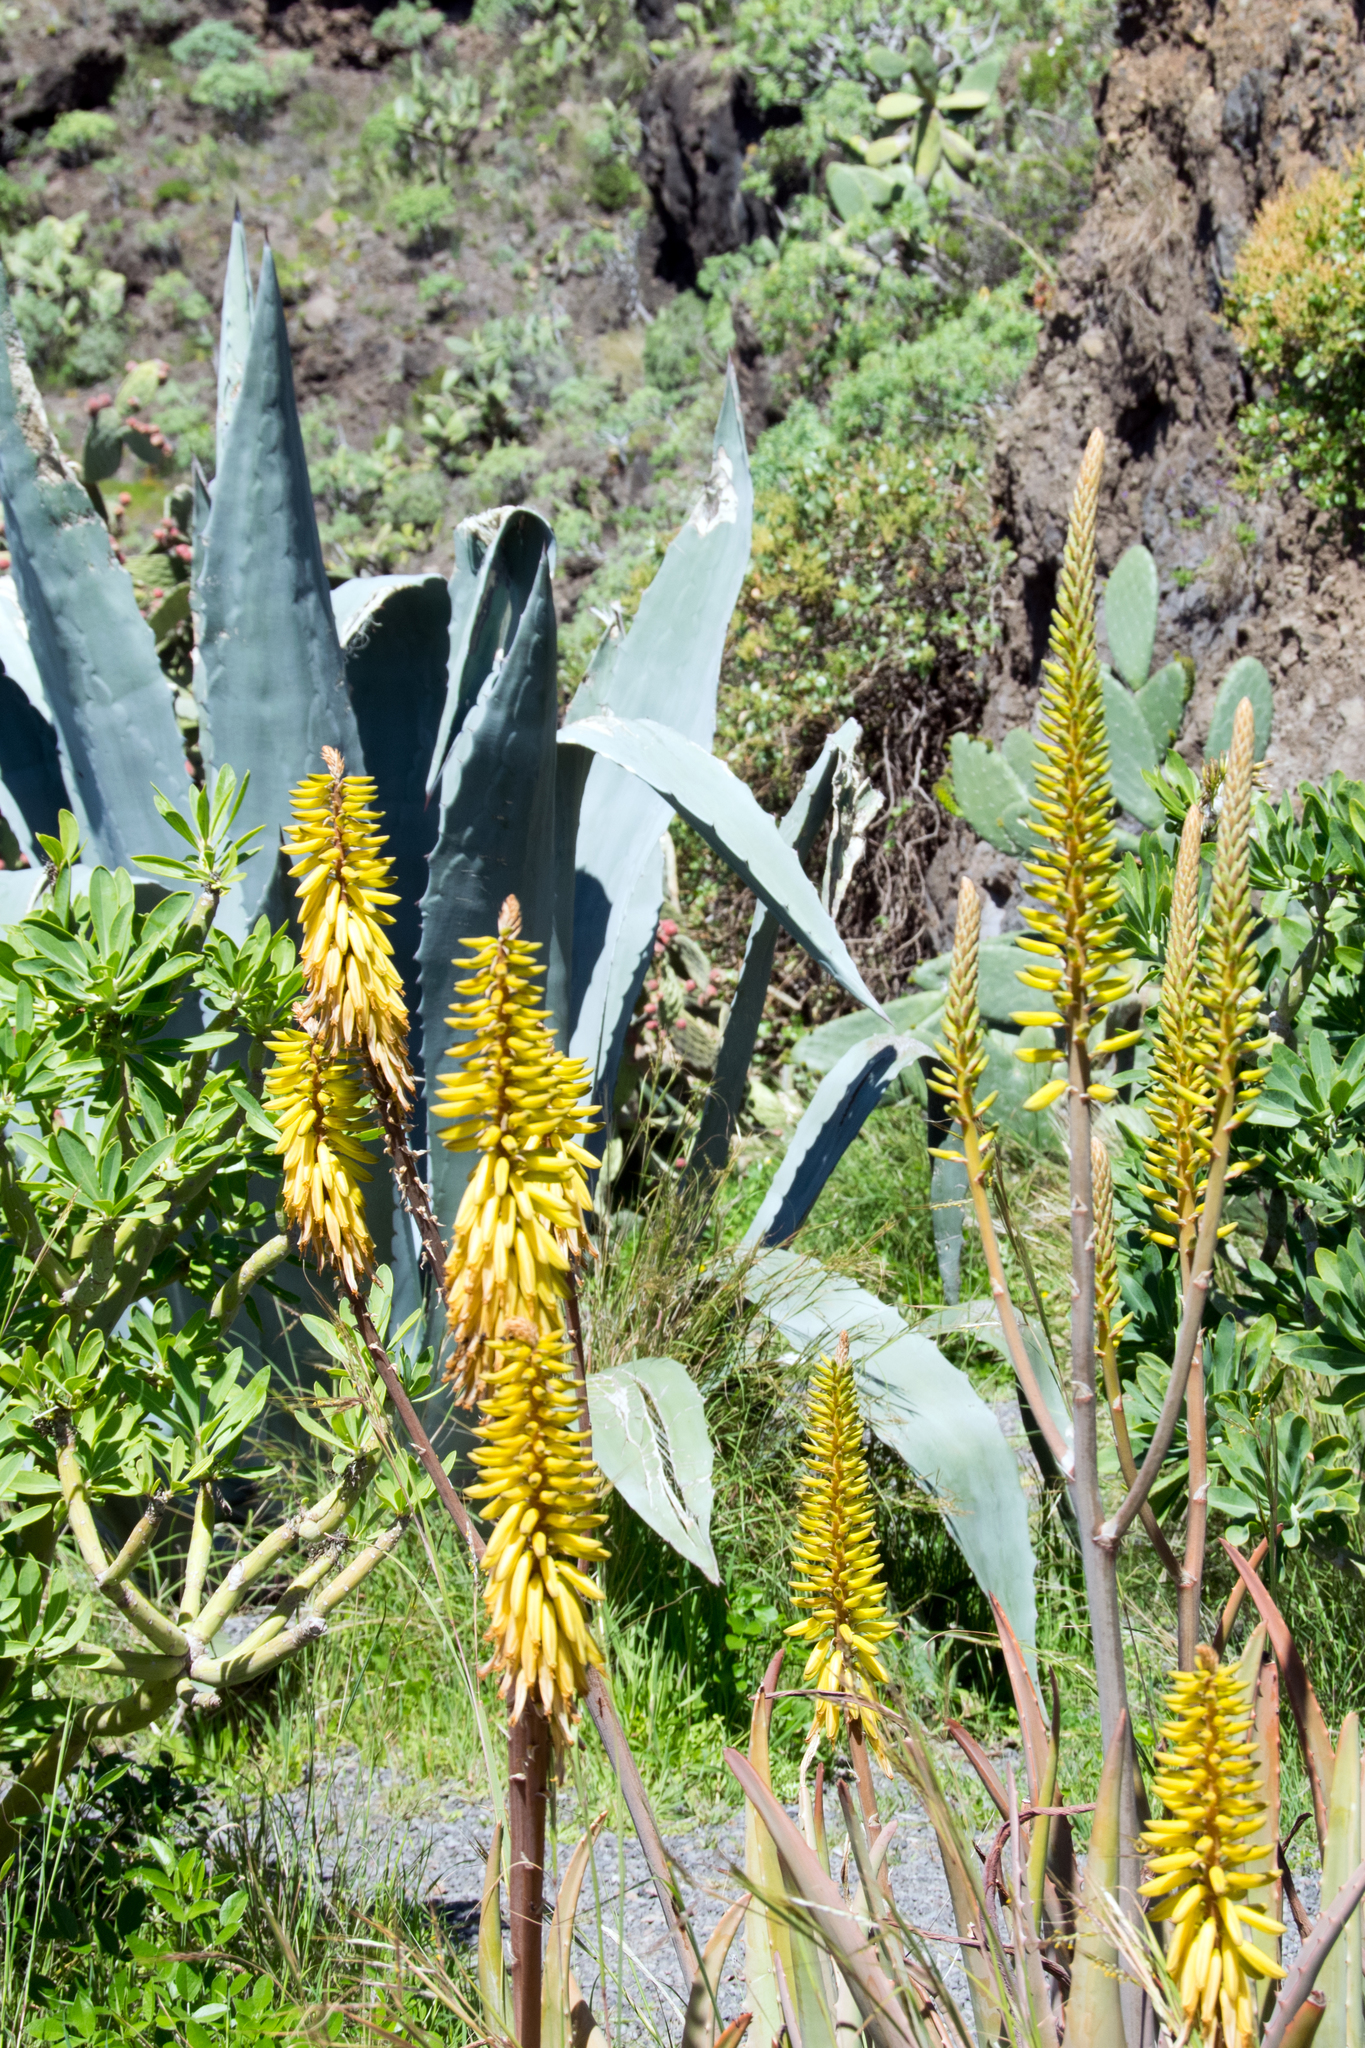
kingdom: Plantae
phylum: Tracheophyta
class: Liliopsida
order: Asparagales
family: Asphodelaceae
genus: Aloe
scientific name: Aloe vera
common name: Barbados aloe
